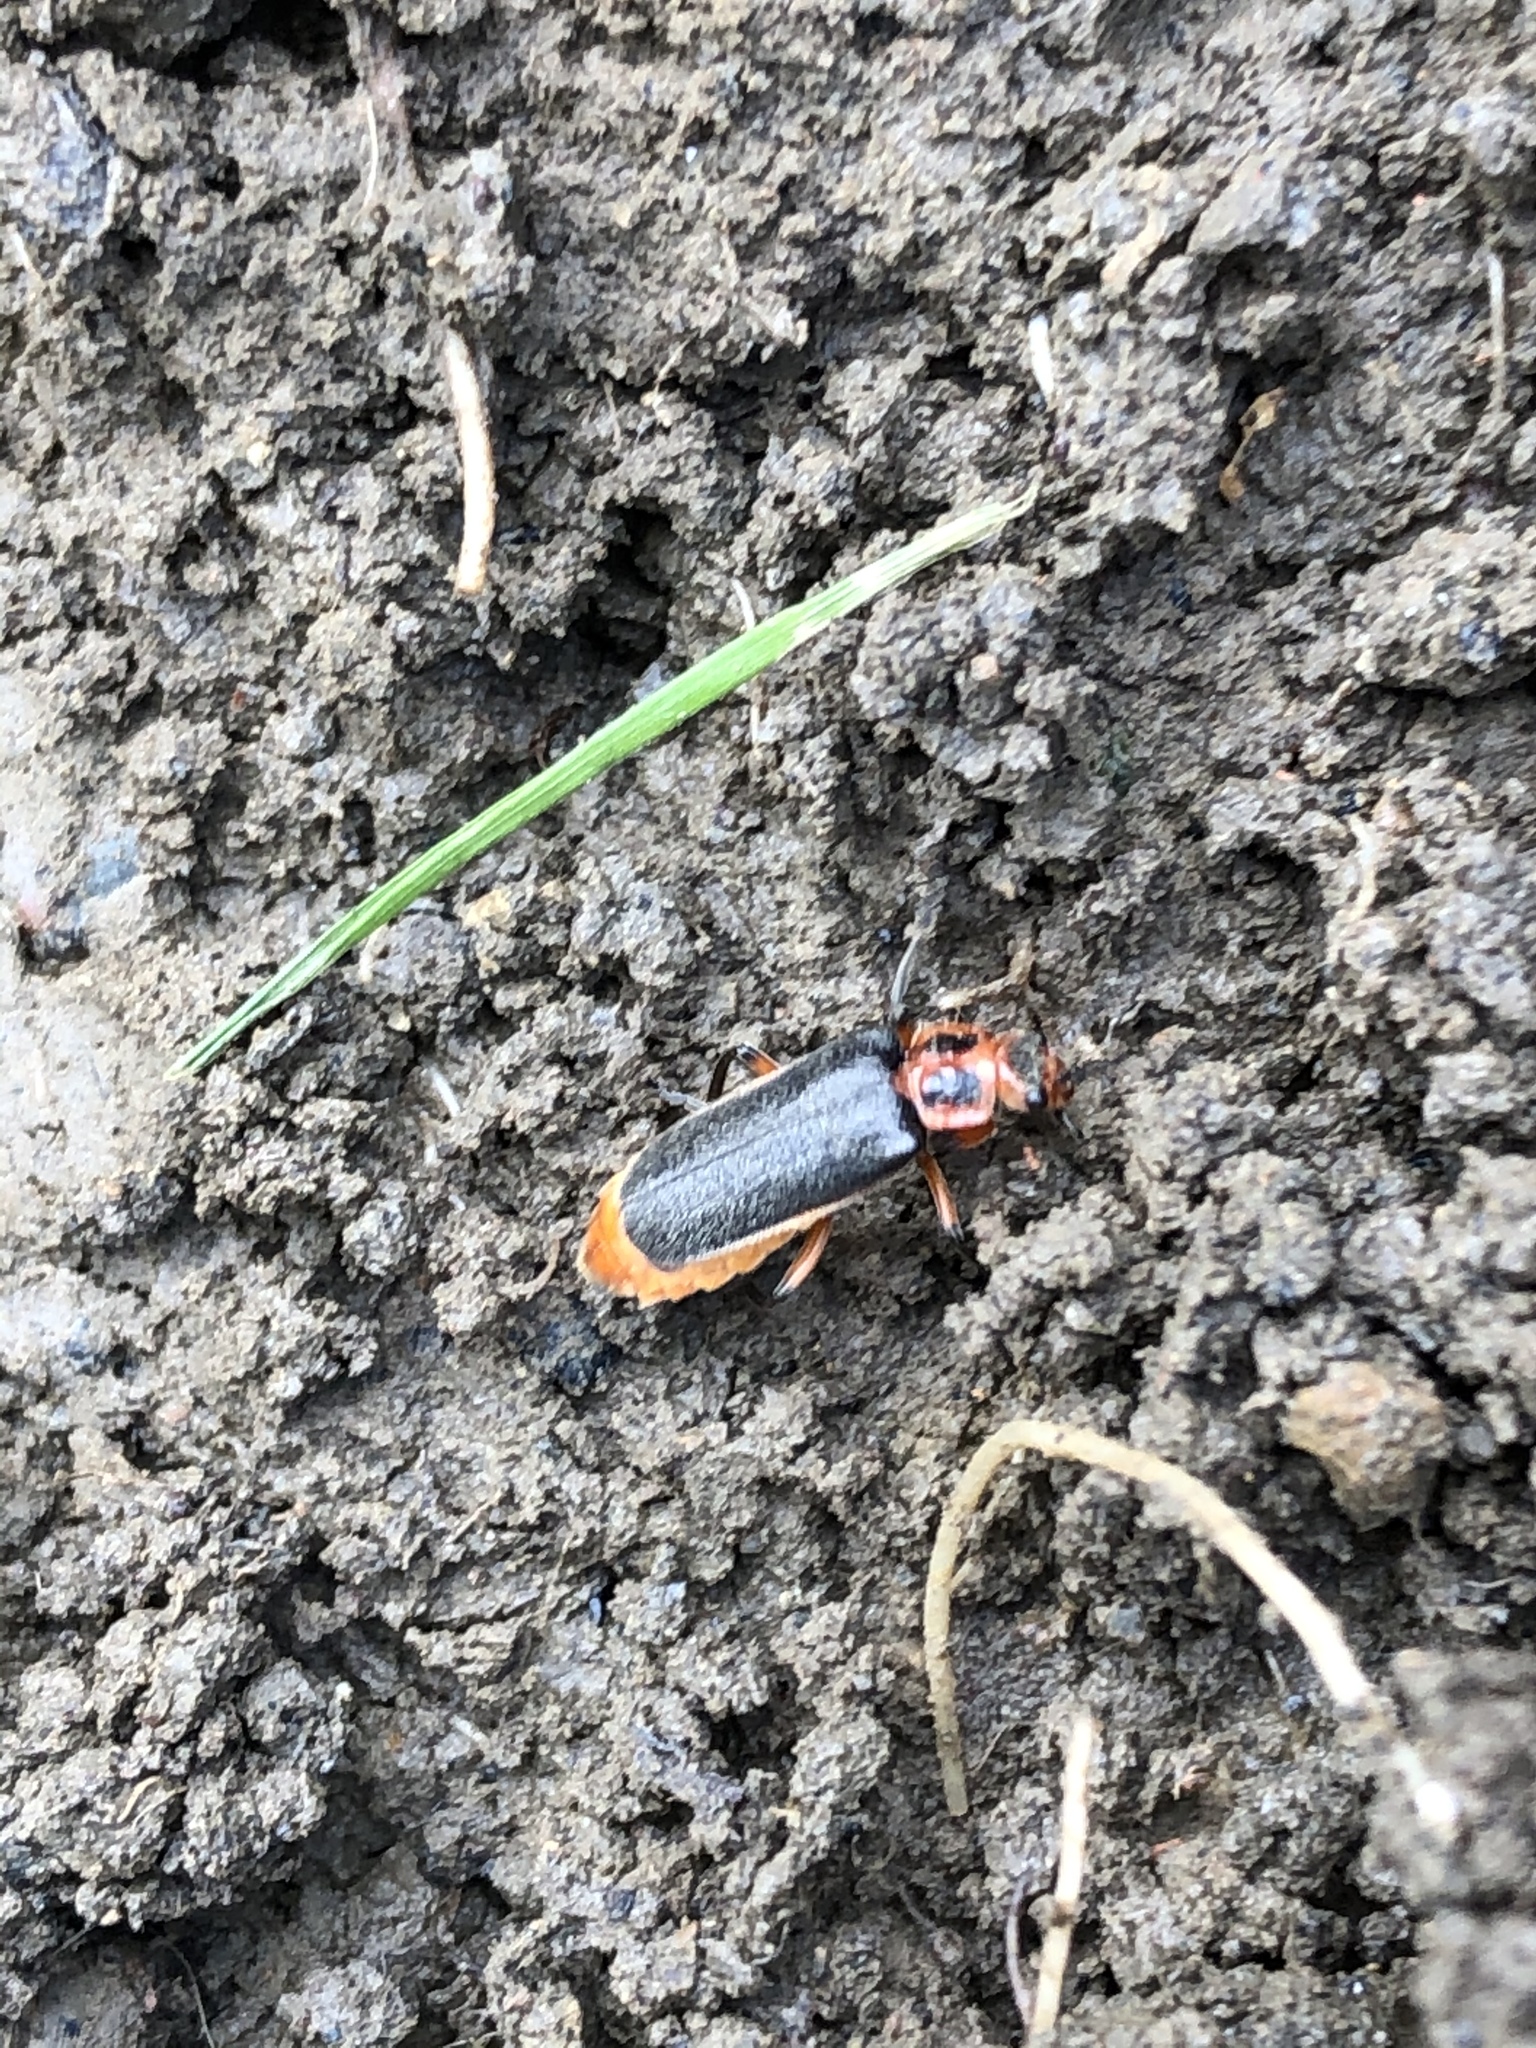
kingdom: Animalia
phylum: Arthropoda
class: Insecta
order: Coleoptera
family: Cantharidae
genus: Atalantycha
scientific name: Atalantycha bilineata
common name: Two-lined leatherwing
